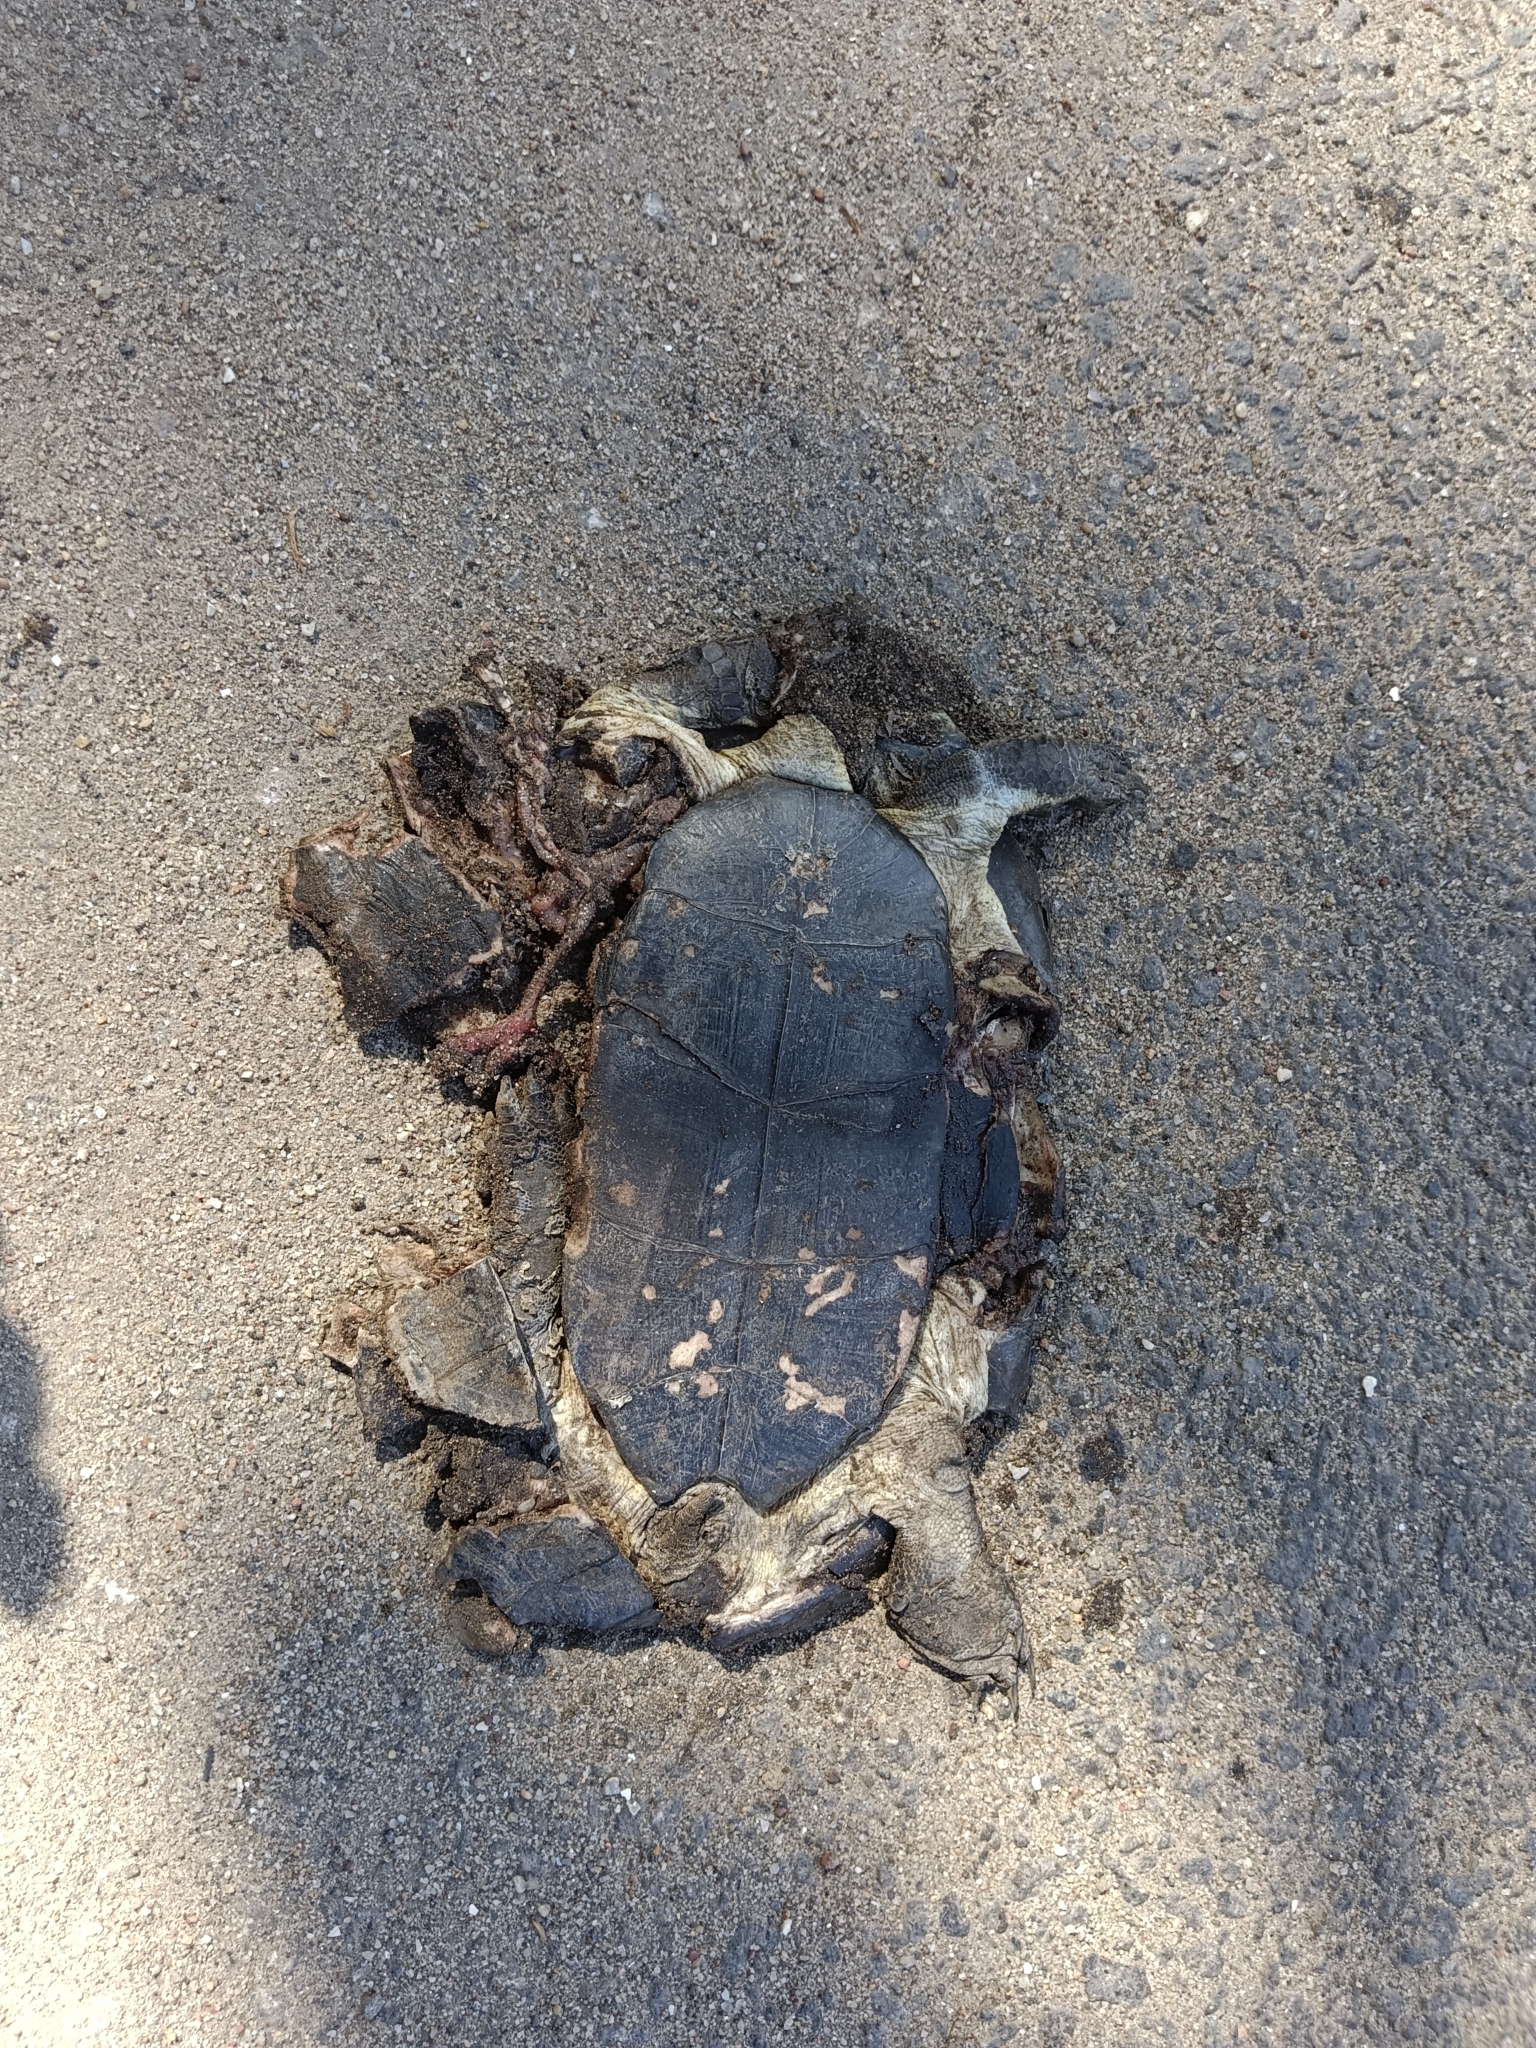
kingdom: Animalia
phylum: Chordata
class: Testudines
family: Geoemydidae
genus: Melanochelys
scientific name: Melanochelys trijuga
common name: Indian black turtle
